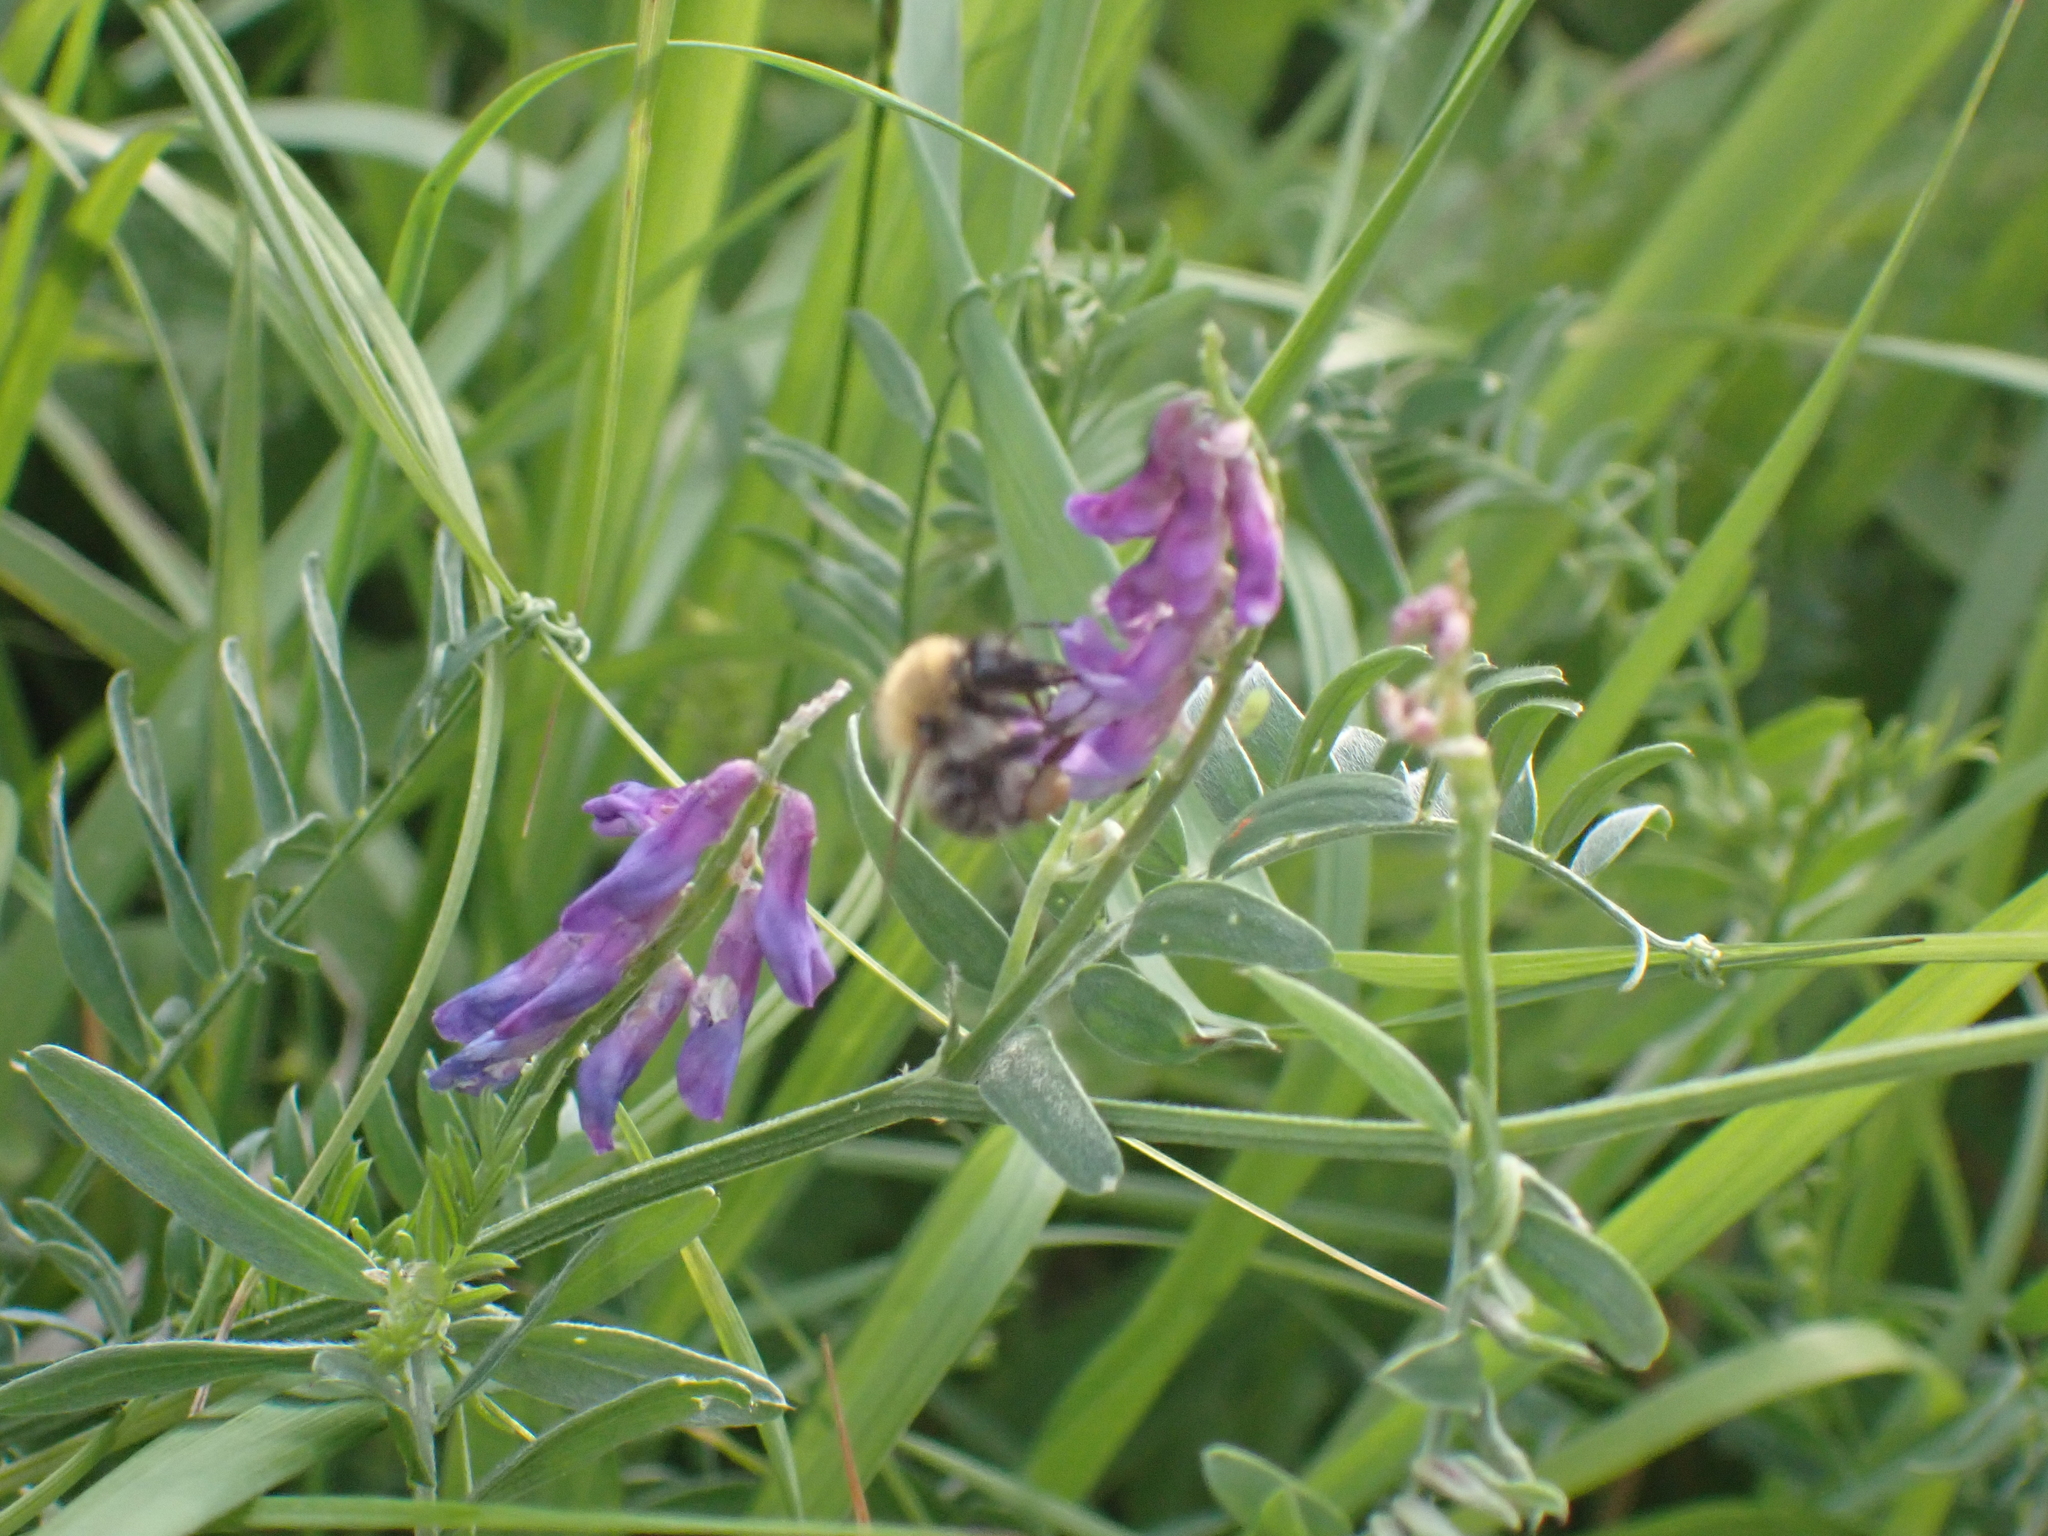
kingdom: Animalia
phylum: Arthropoda
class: Insecta
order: Hymenoptera
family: Apidae
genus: Bombus
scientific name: Bombus pascuorum
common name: Common carder bee
